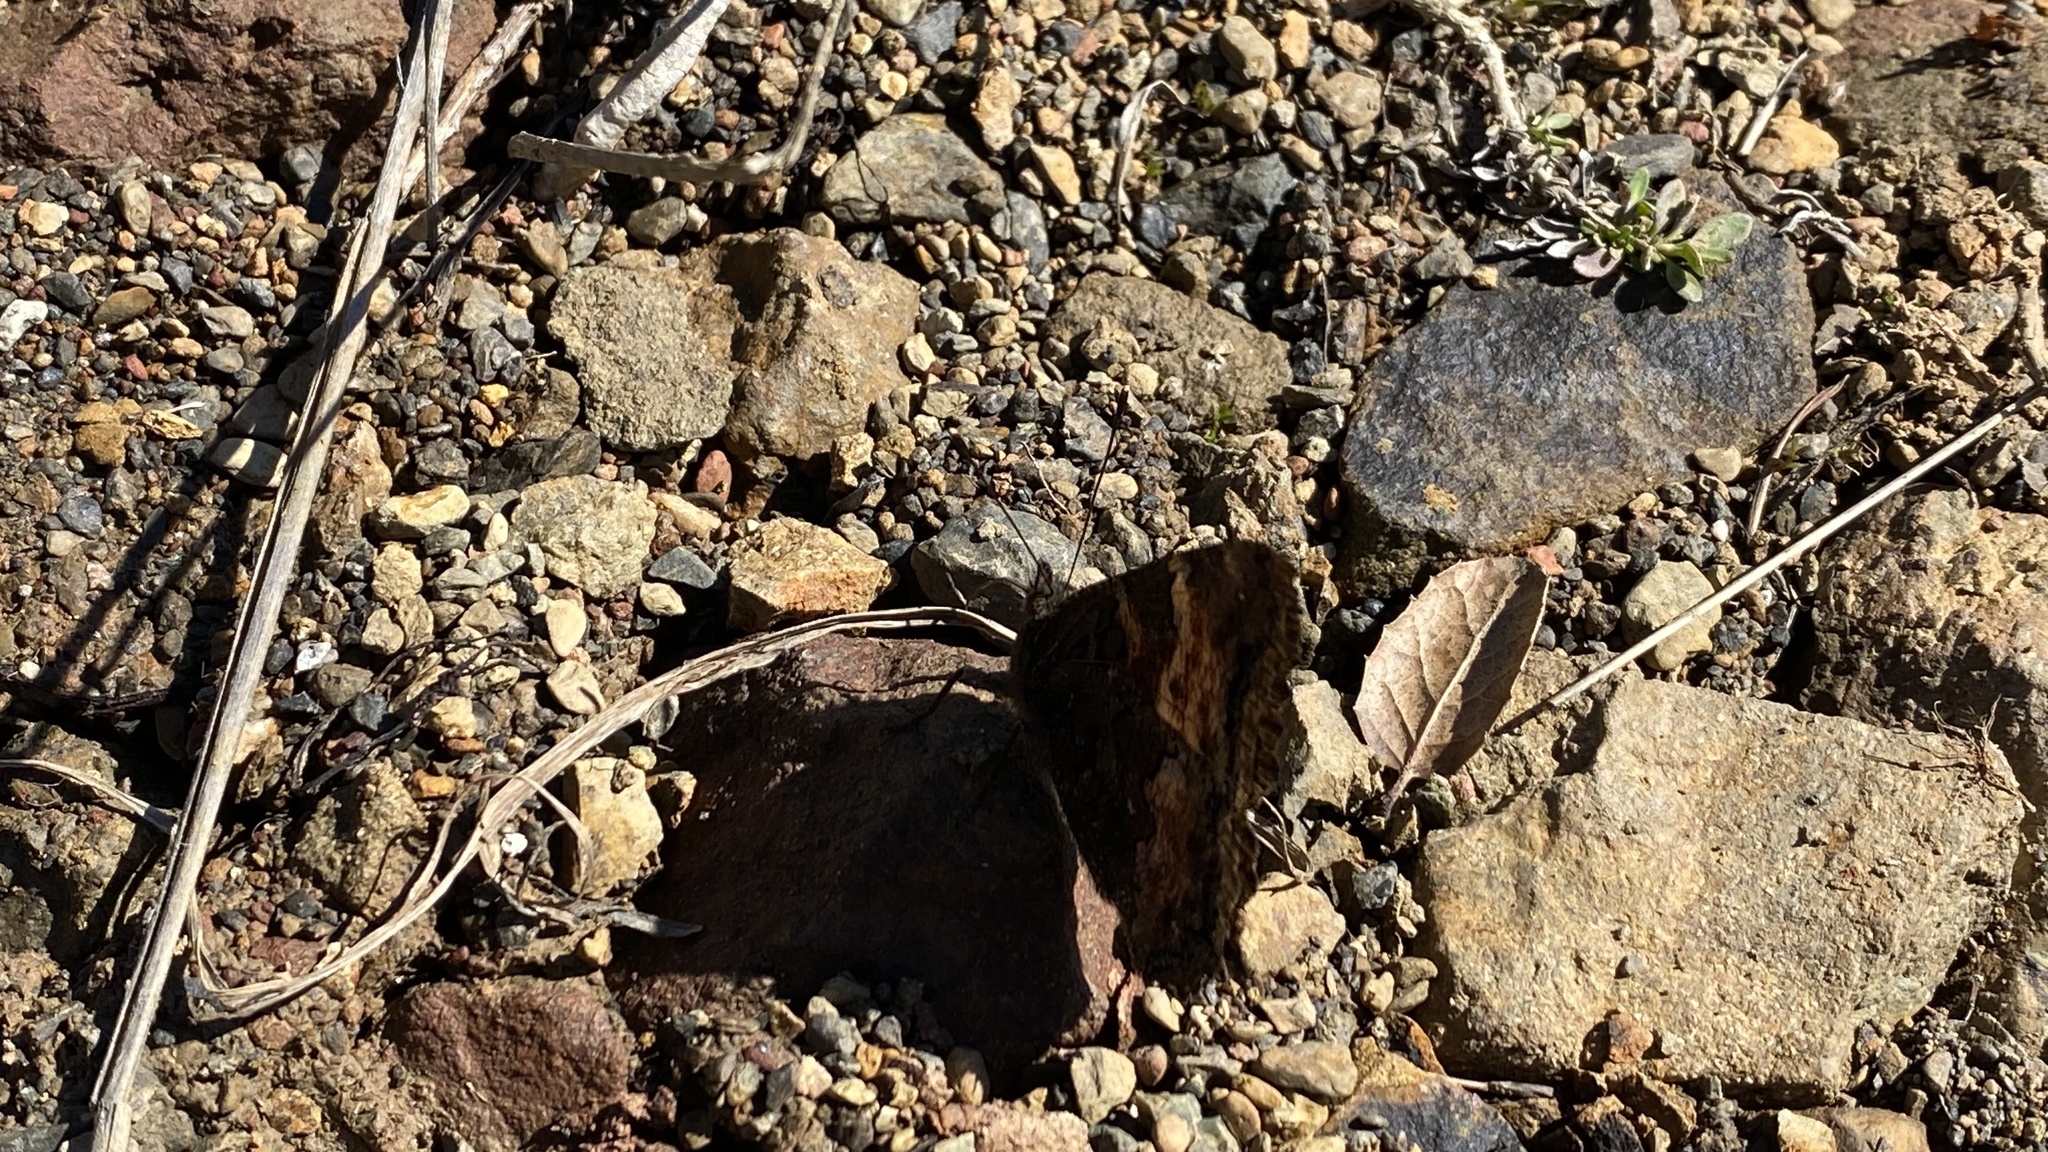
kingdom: Animalia
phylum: Arthropoda
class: Insecta
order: Lepidoptera
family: Nymphalidae
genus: Nymphalis
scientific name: Nymphalis californica
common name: California tortoiseshell
